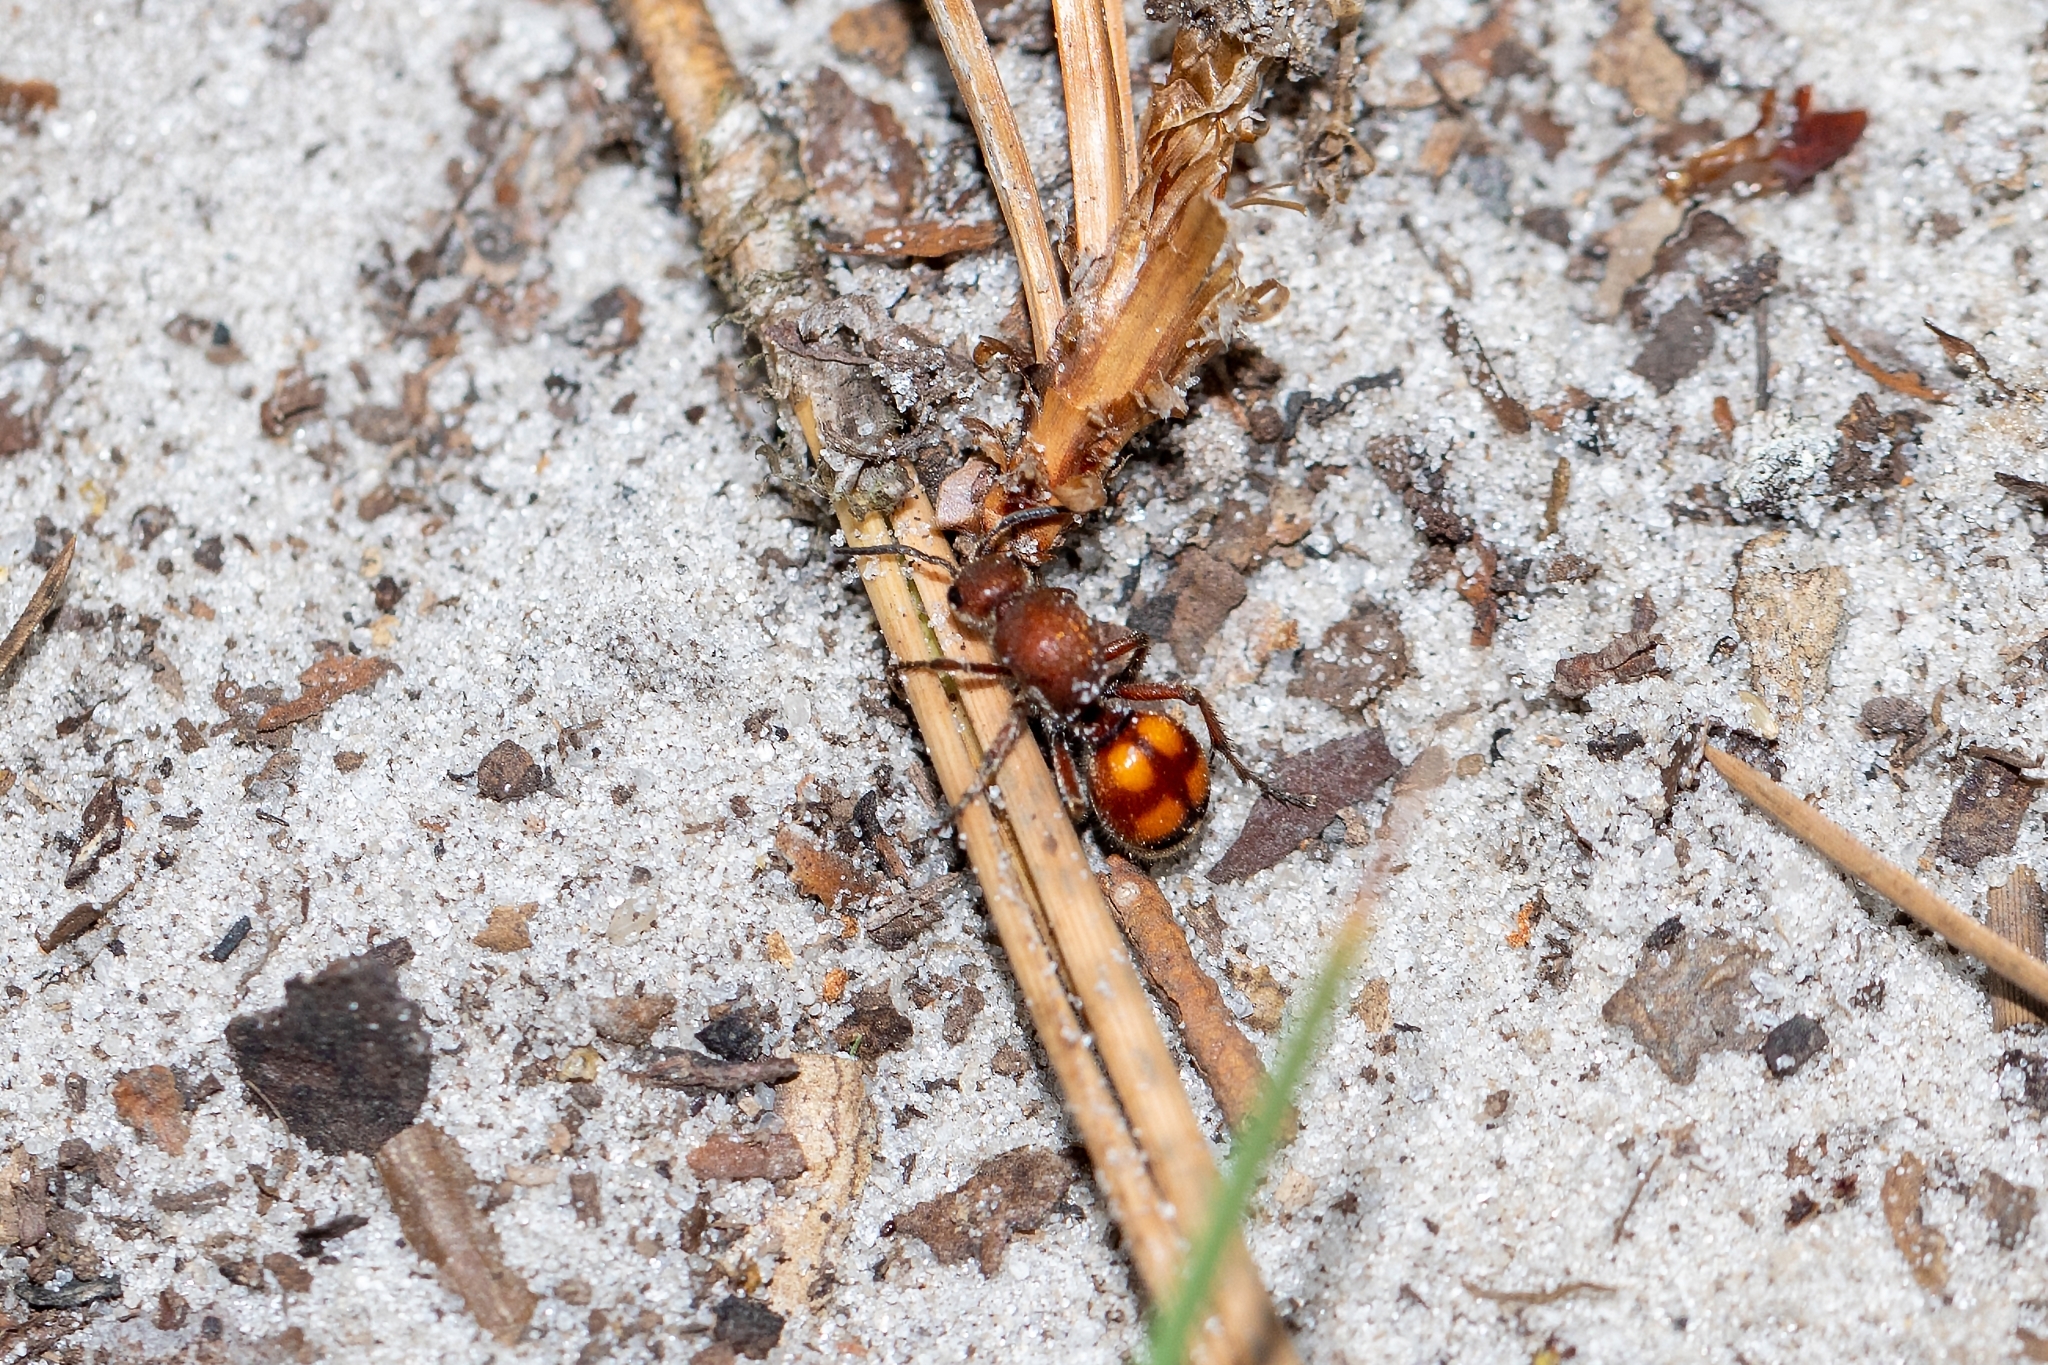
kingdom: Animalia
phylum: Arthropoda
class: Insecta
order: Hymenoptera
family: Mutillidae
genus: Dasymutilla
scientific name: Dasymutilla
